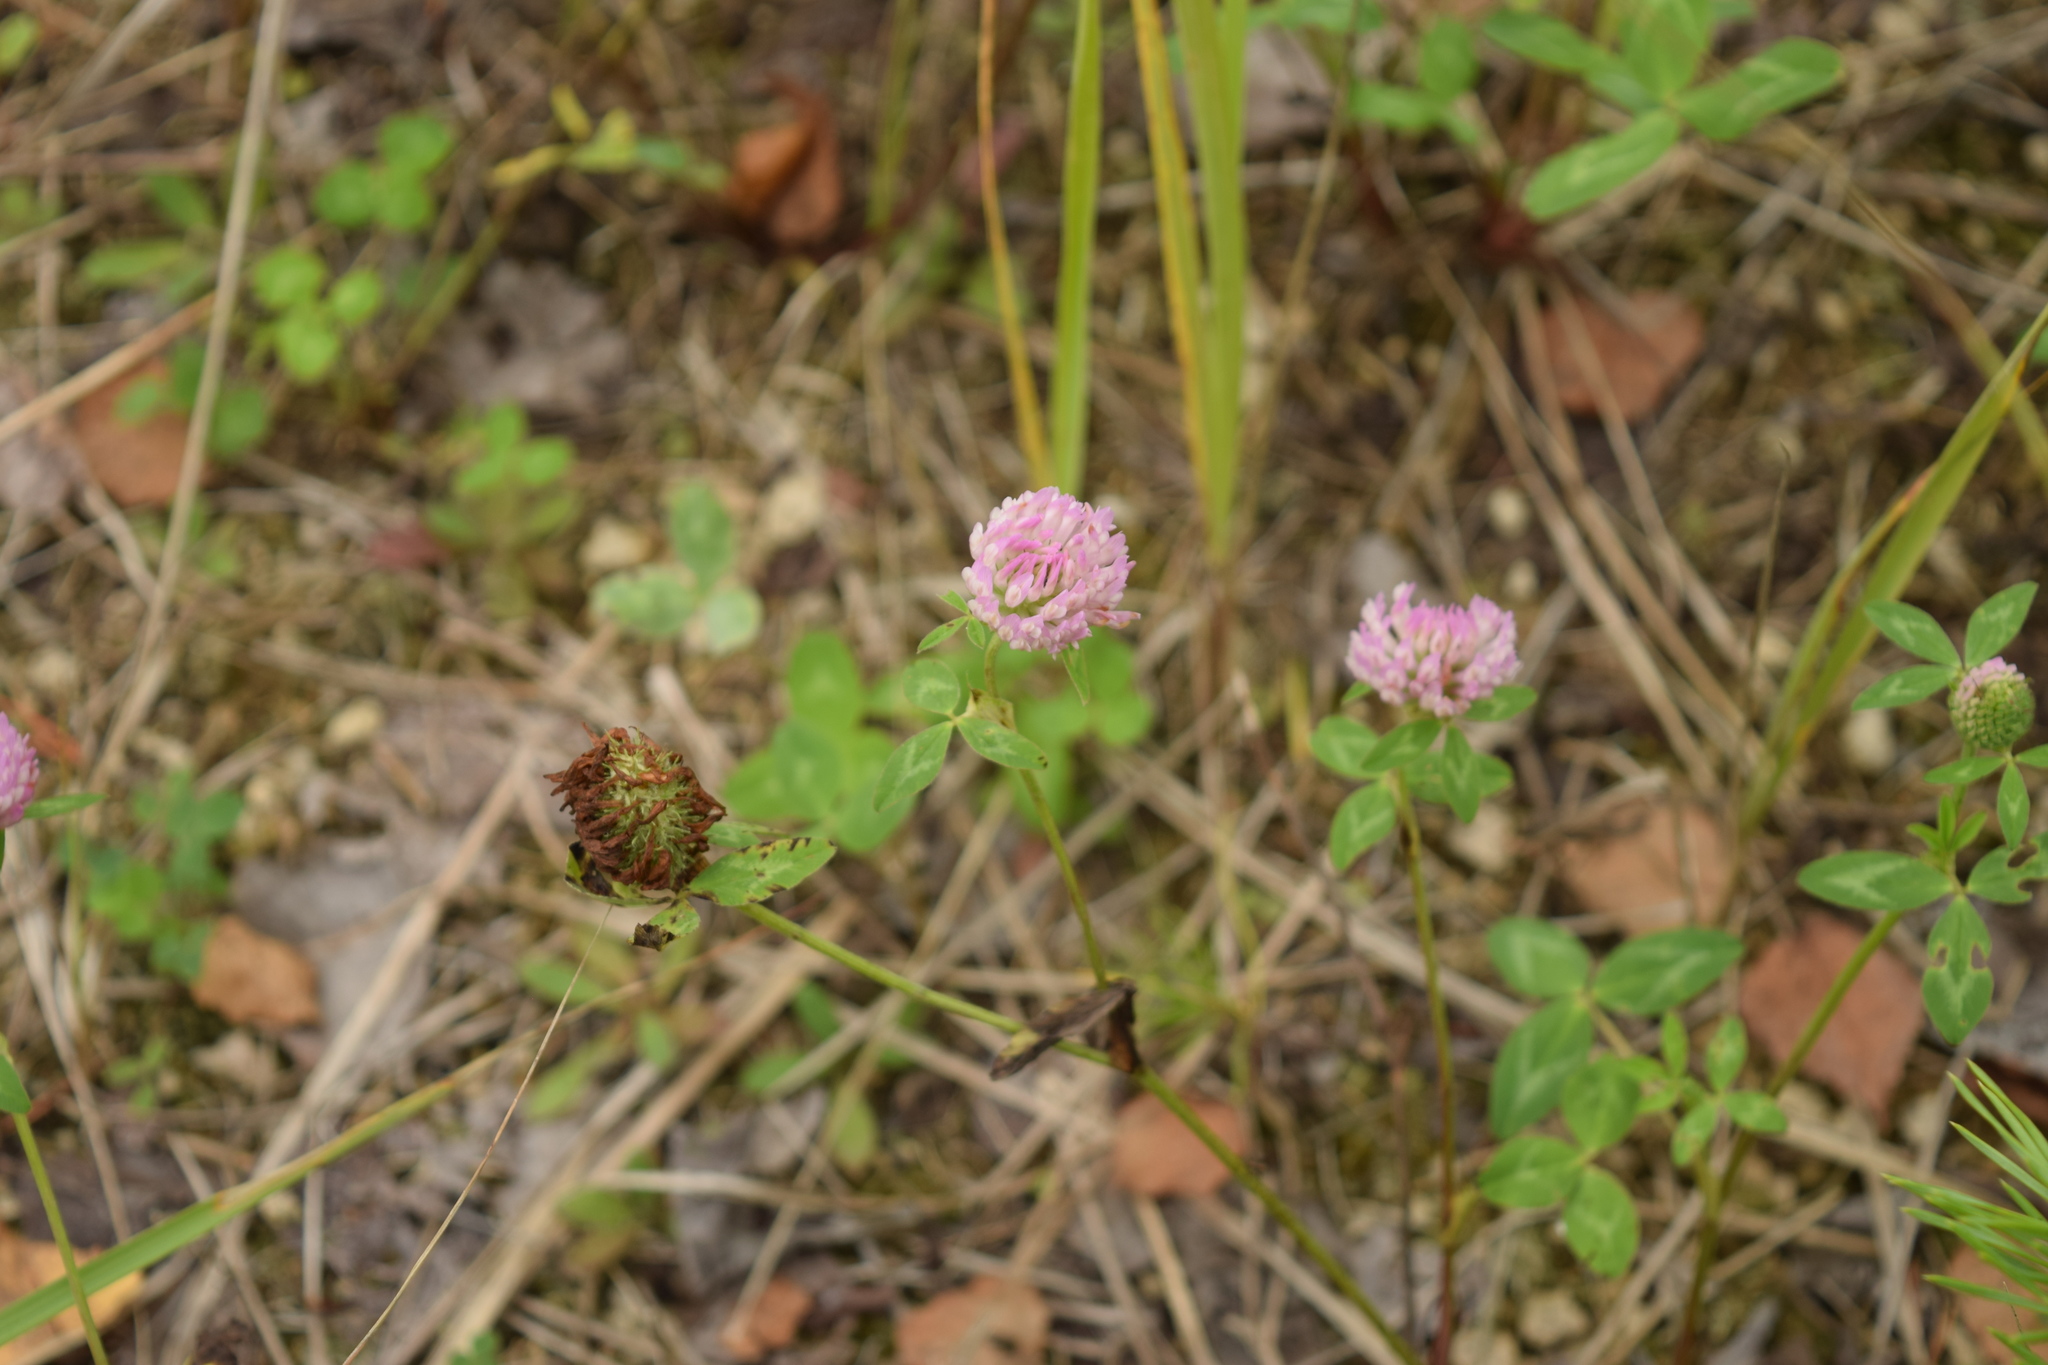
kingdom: Plantae
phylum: Tracheophyta
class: Magnoliopsida
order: Fabales
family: Fabaceae
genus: Trifolium
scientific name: Trifolium pratense
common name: Red clover
